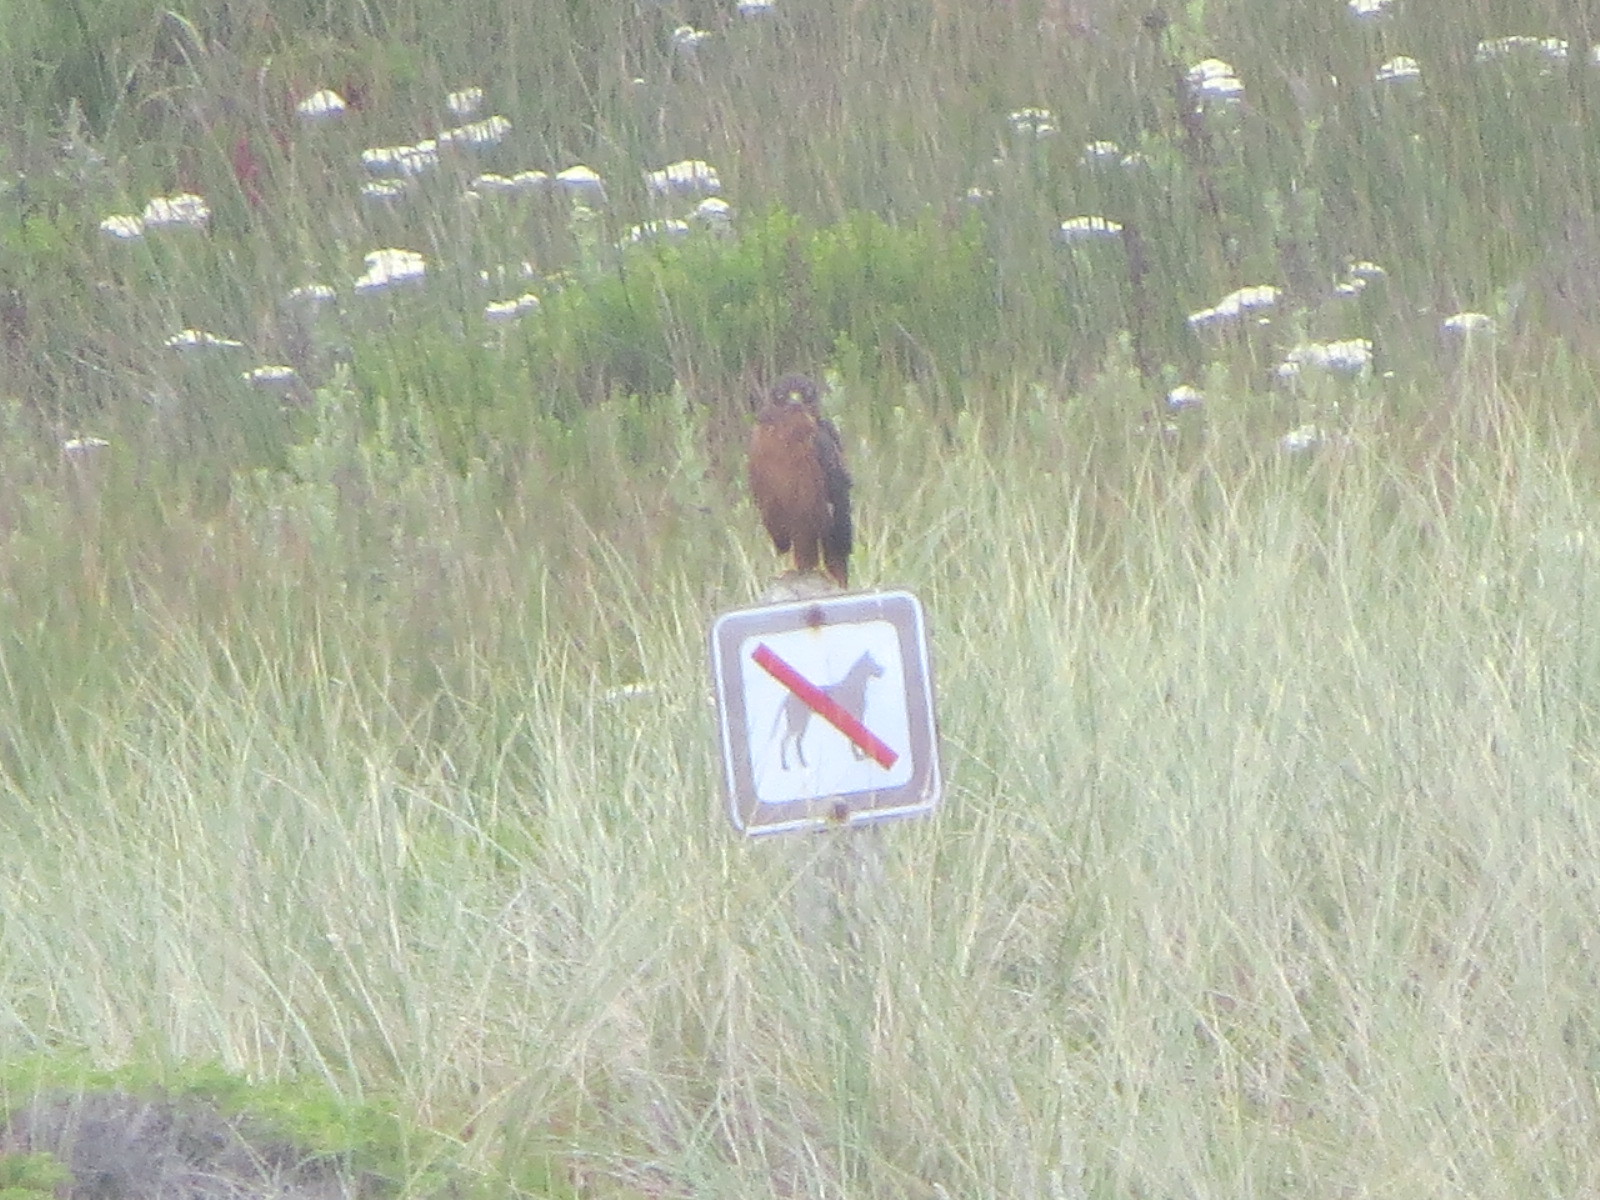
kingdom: Animalia
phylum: Chordata
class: Aves
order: Accipitriformes
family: Accipitridae
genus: Circus
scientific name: Circus cyaneus
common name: Hen harrier
